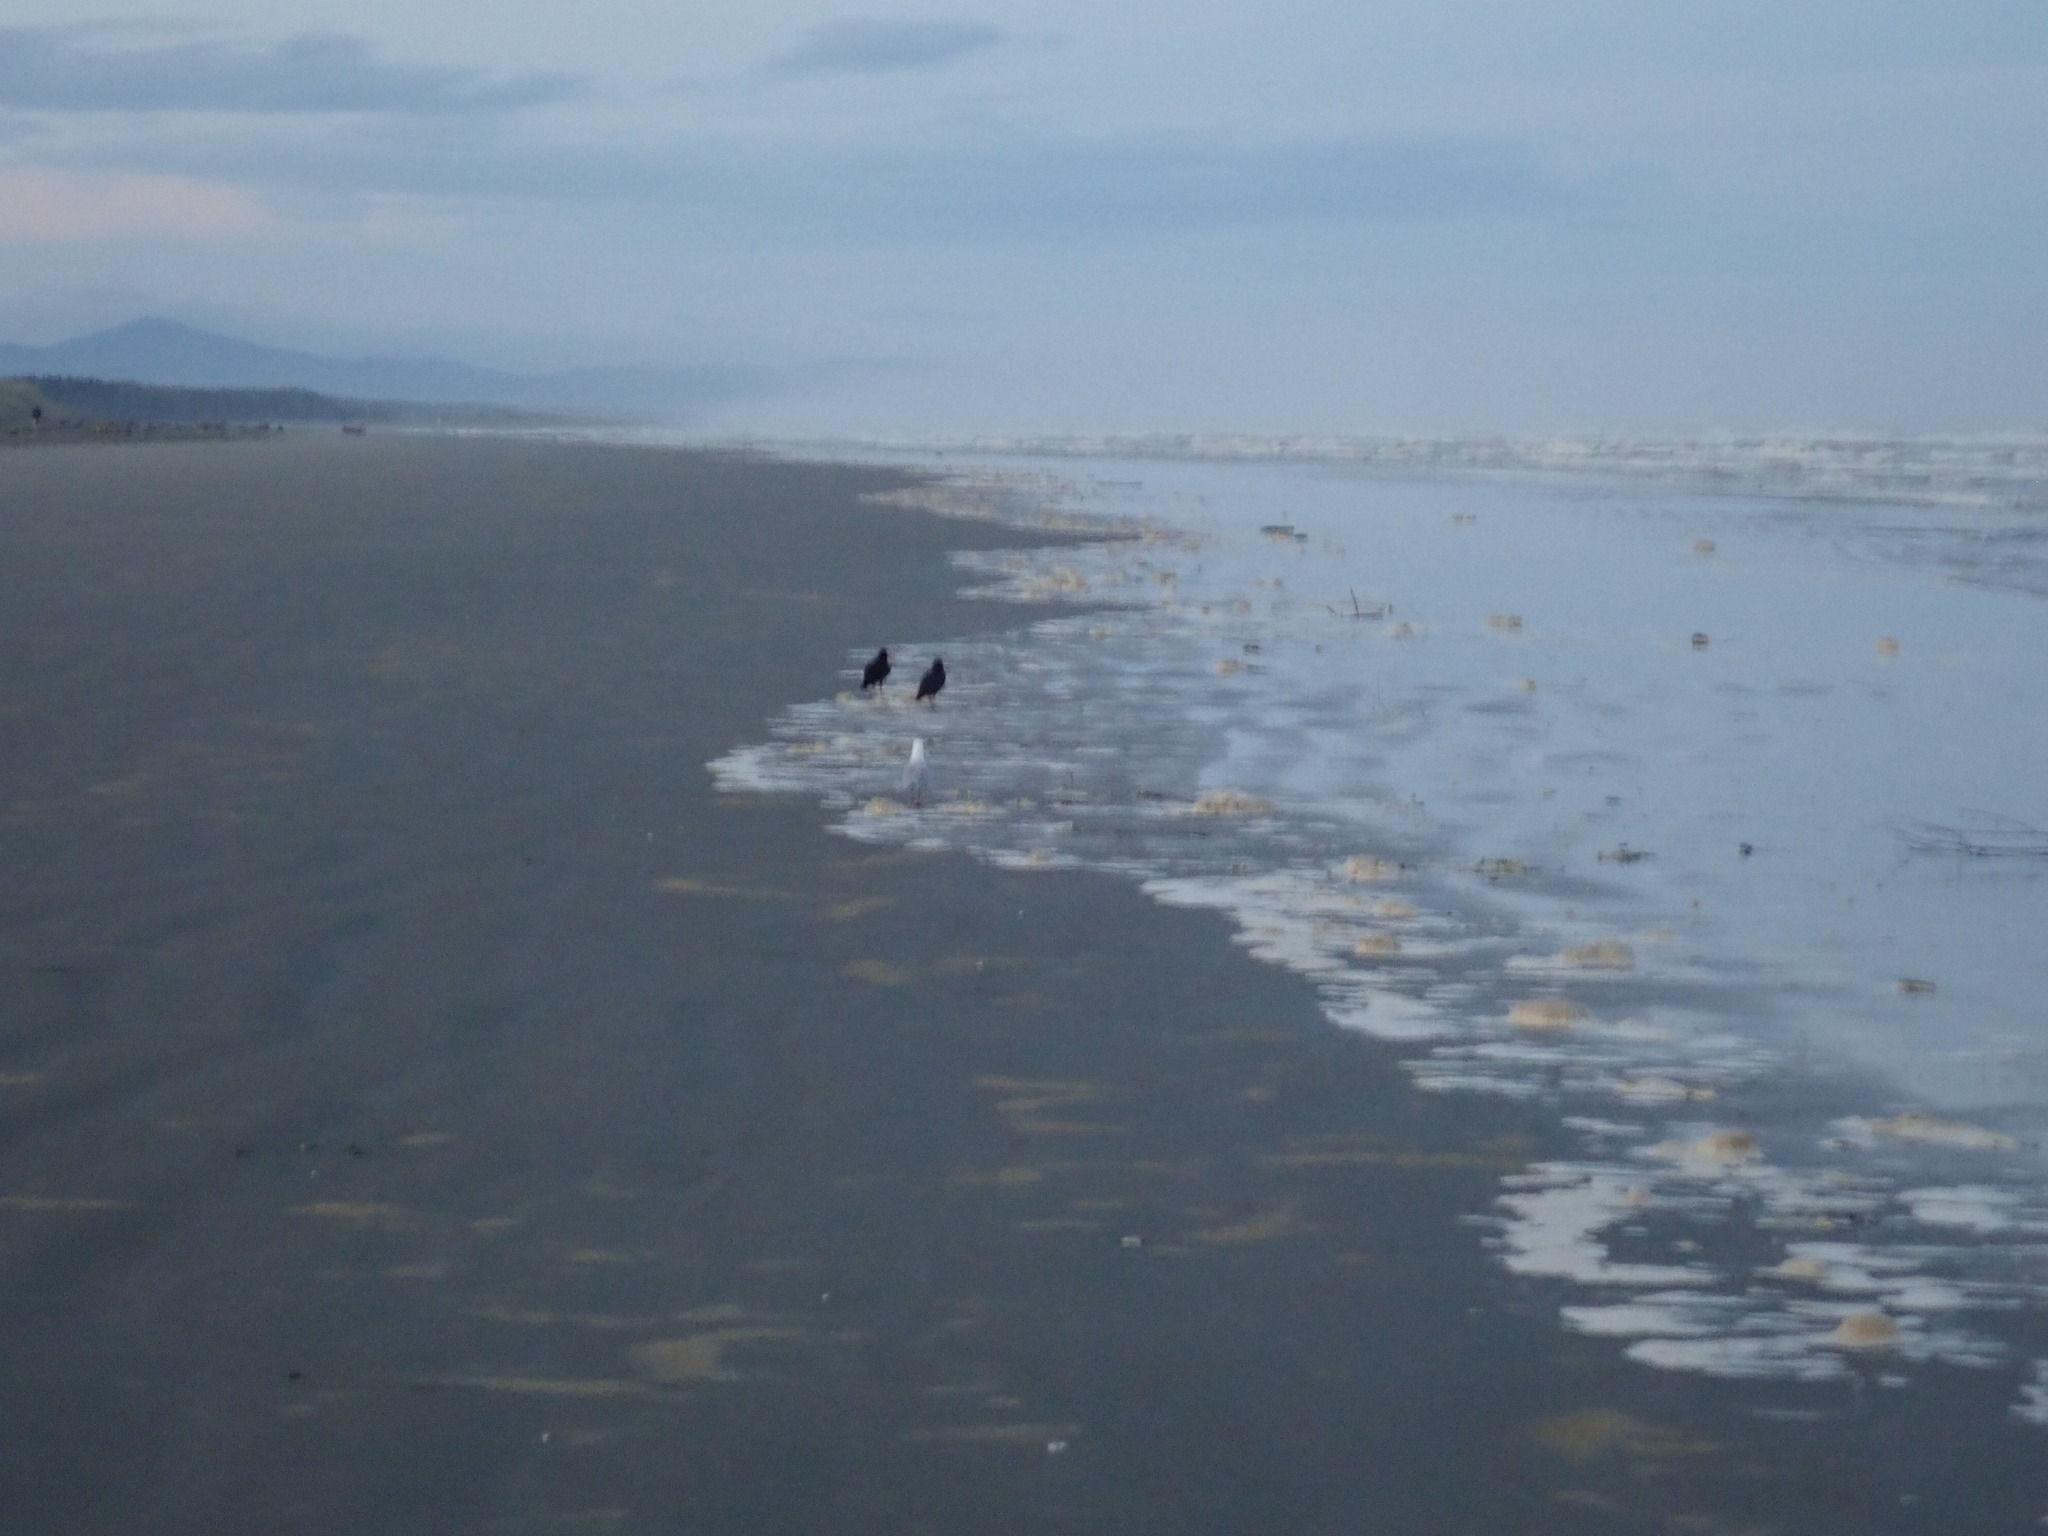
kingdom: Animalia
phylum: Chordata
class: Aves
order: Charadriiformes
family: Haematopodidae
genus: Haematopus
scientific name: Haematopus unicolor
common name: Variable oystercatcher
